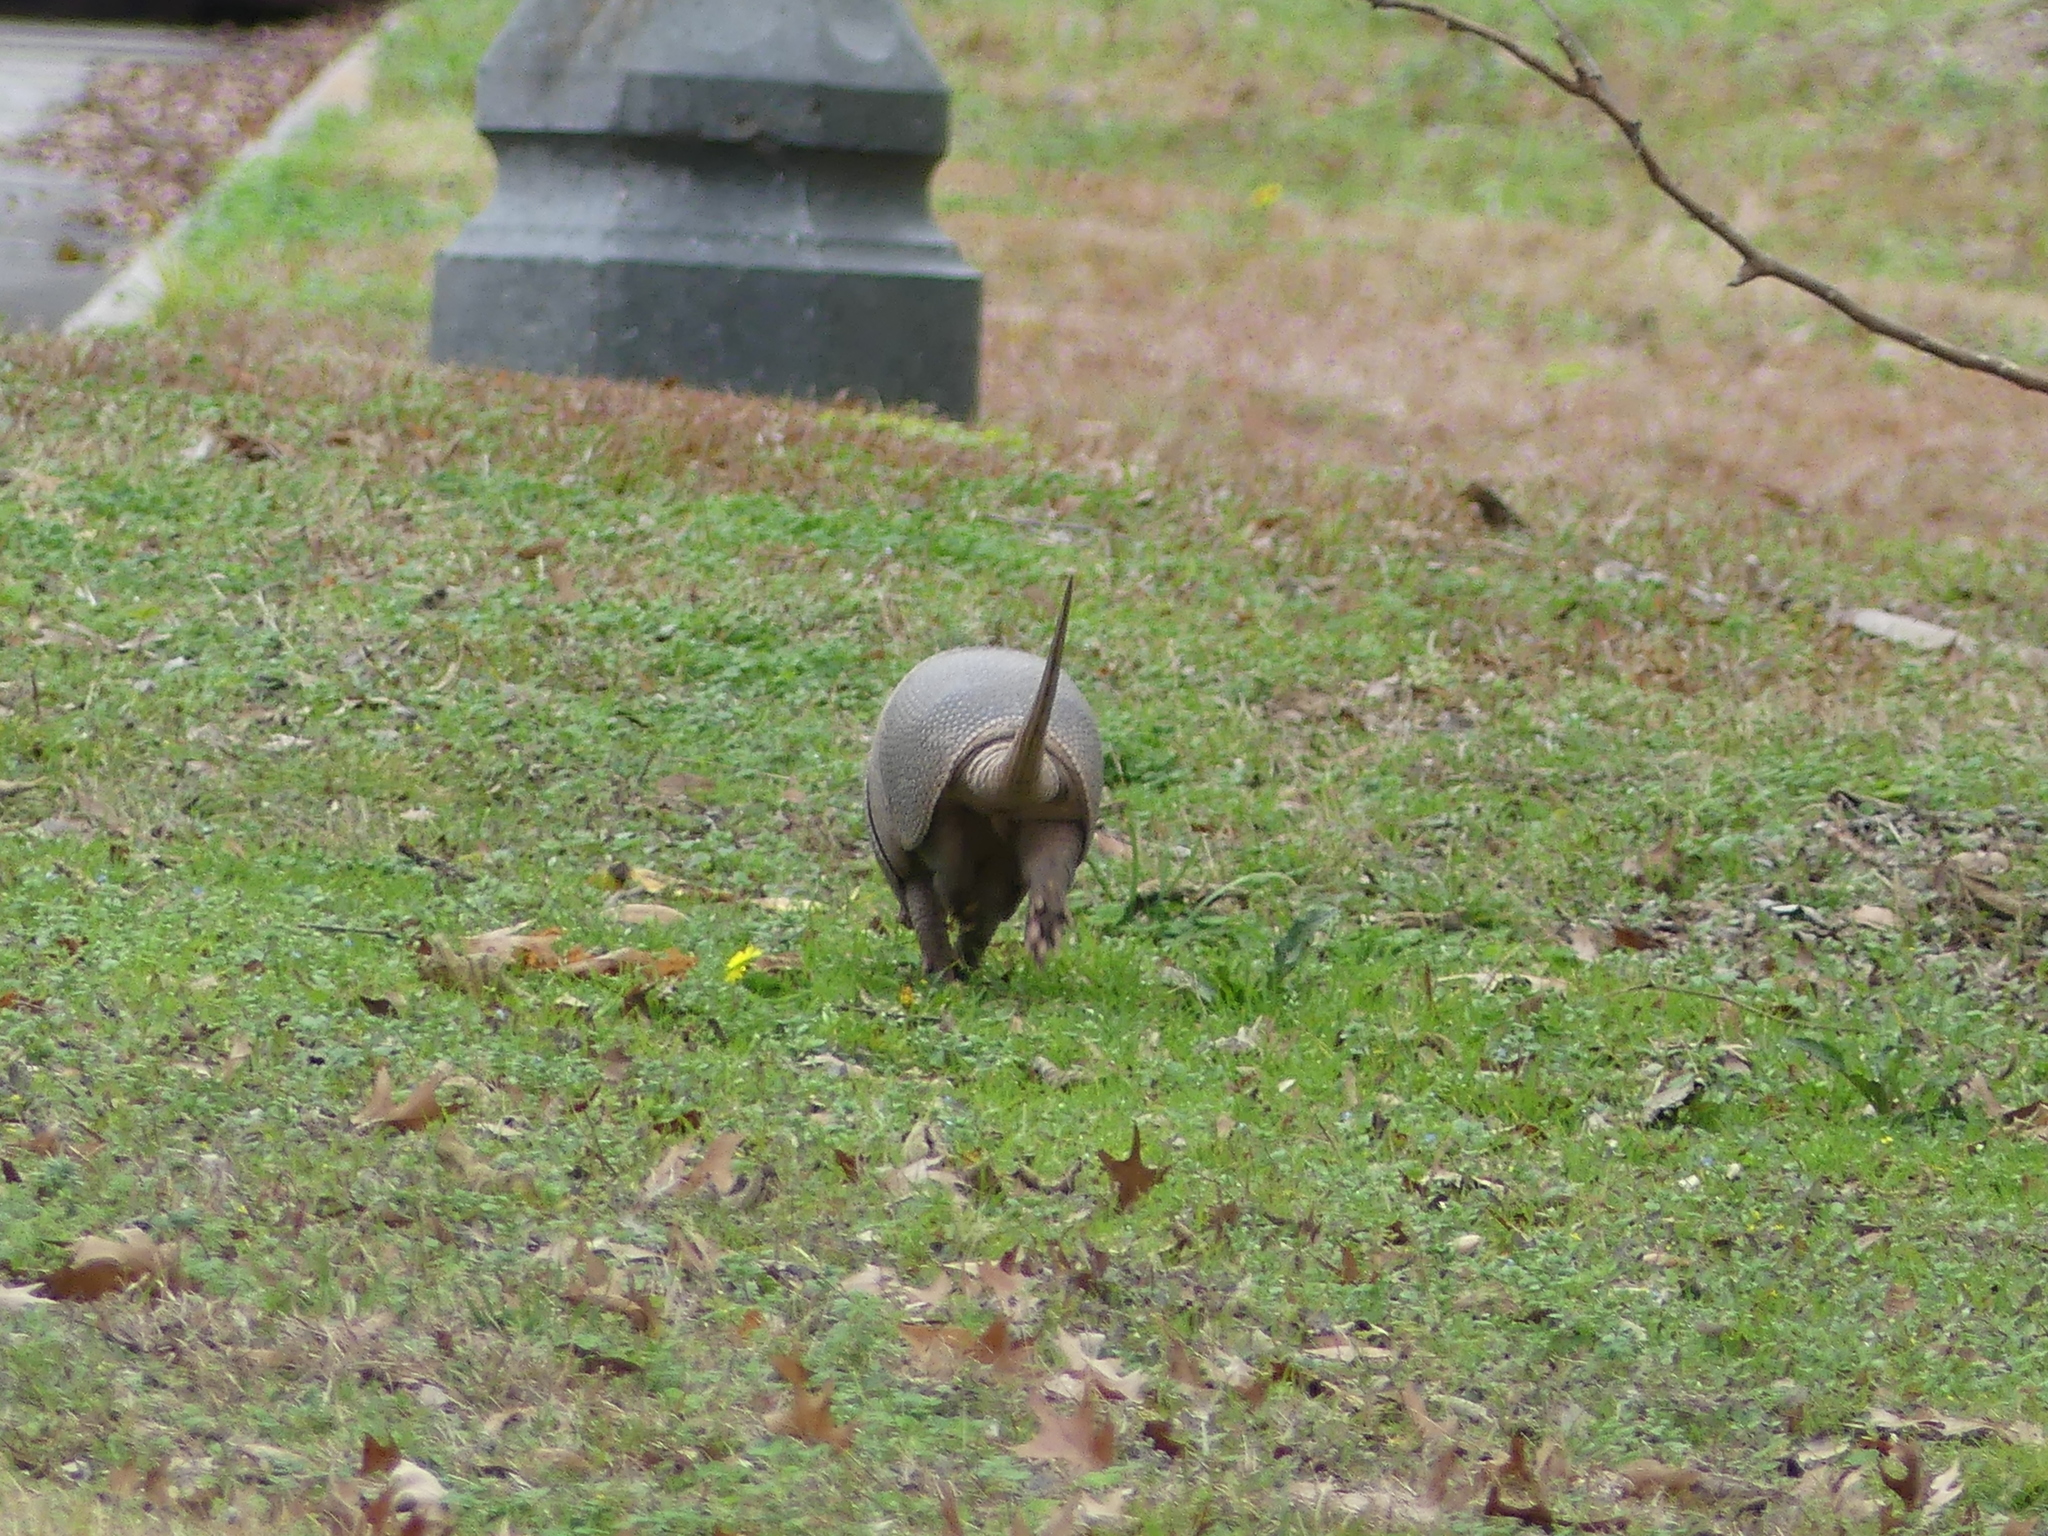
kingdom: Animalia
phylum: Chordata
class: Mammalia
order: Cingulata
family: Dasypodidae
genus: Dasypus
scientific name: Dasypus novemcinctus
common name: Nine-banded armadillo
